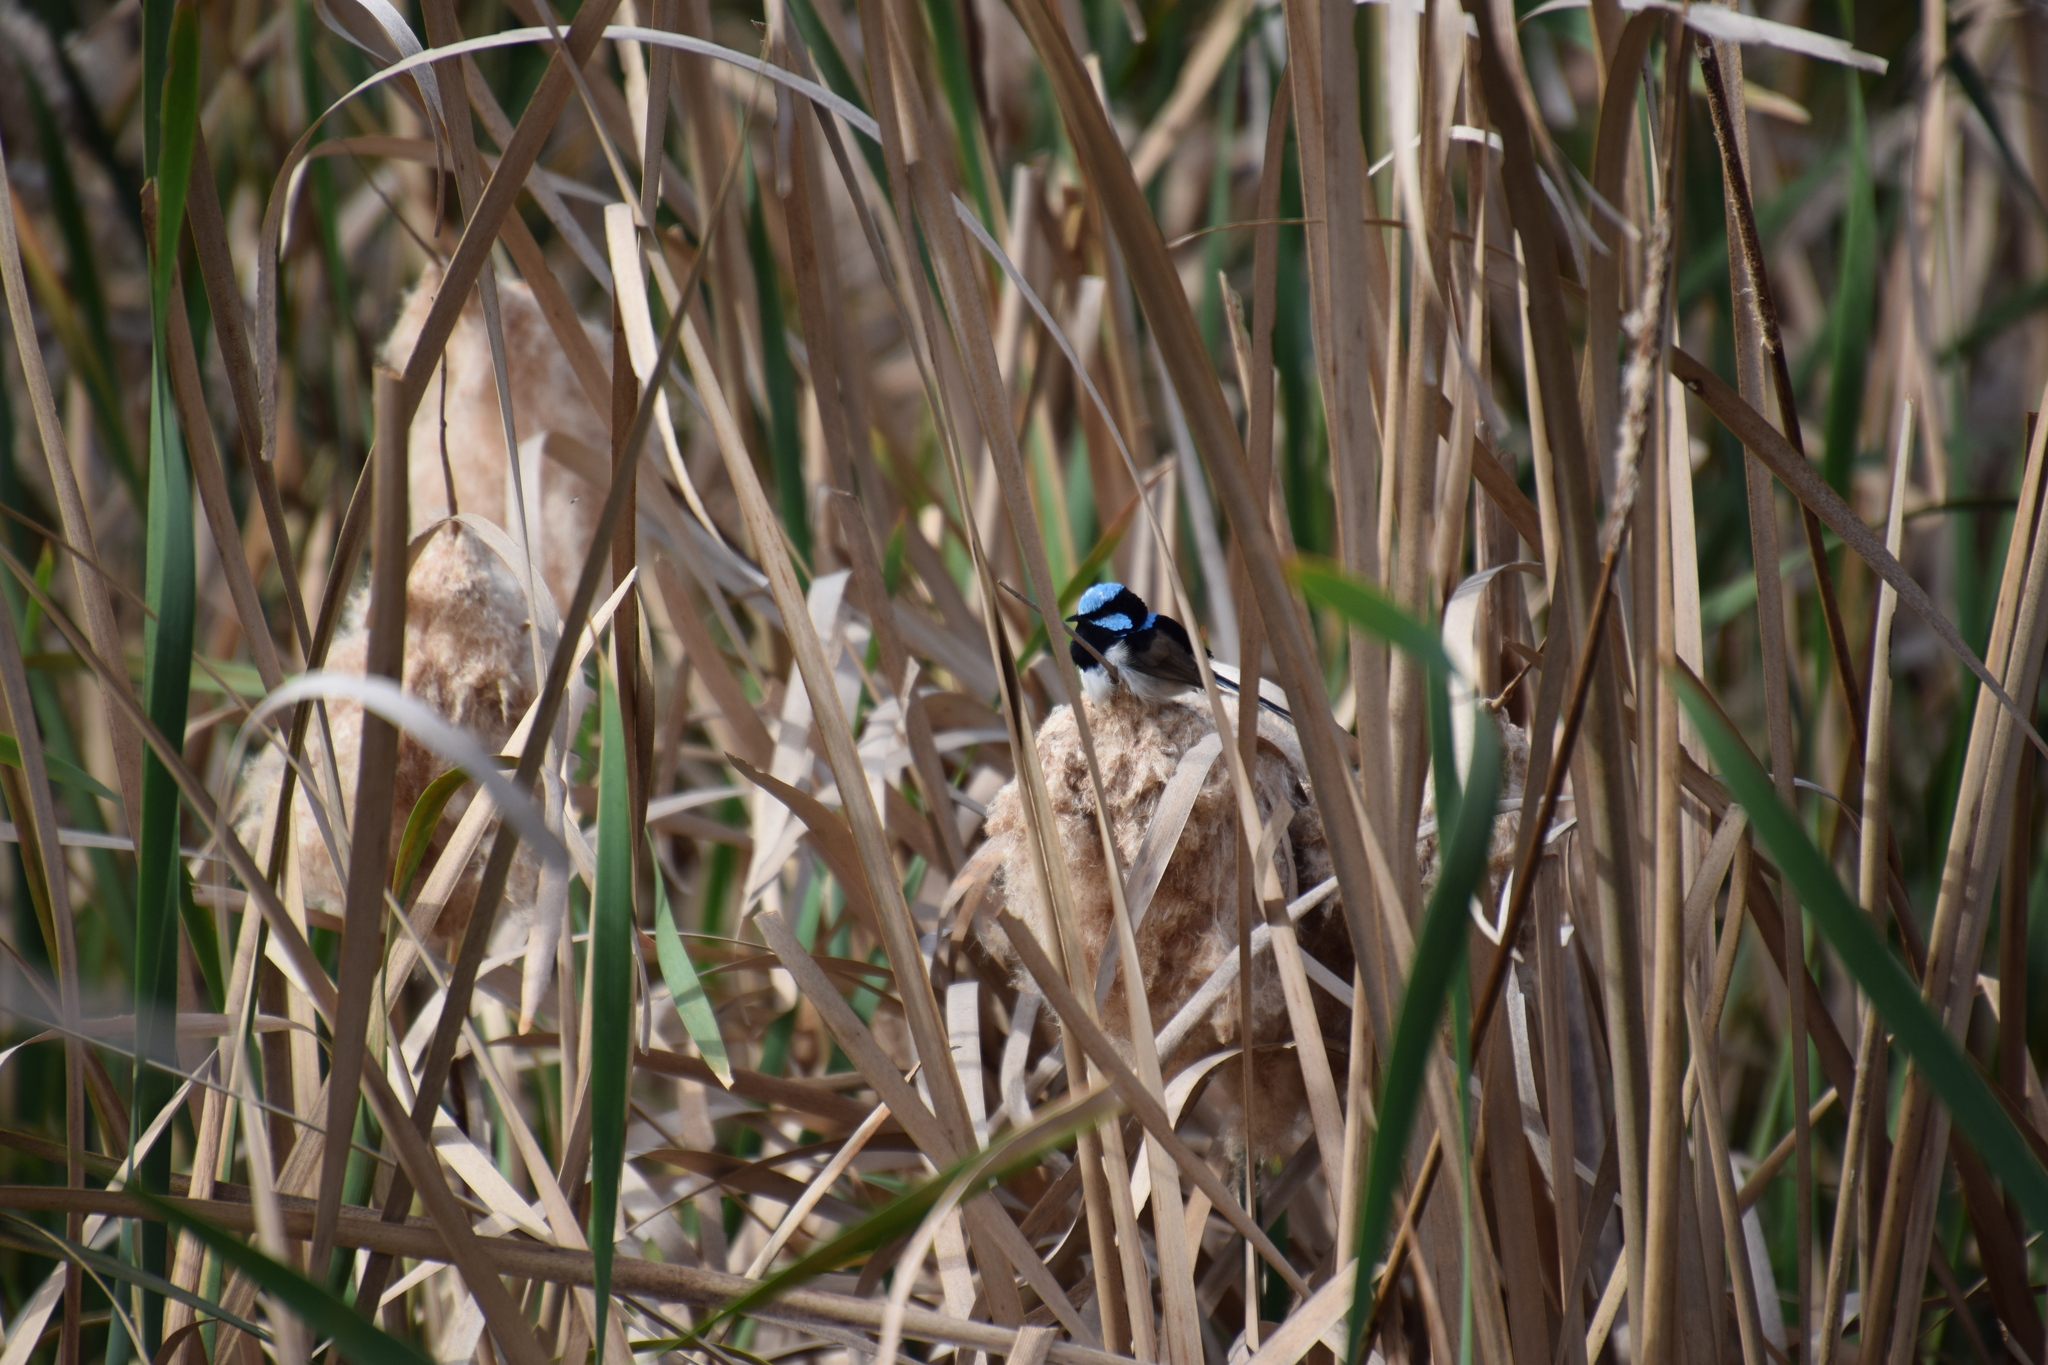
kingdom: Animalia
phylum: Chordata
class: Aves
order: Passeriformes
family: Maluridae
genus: Malurus
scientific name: Malurus cyaneus
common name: Superb fairywren
